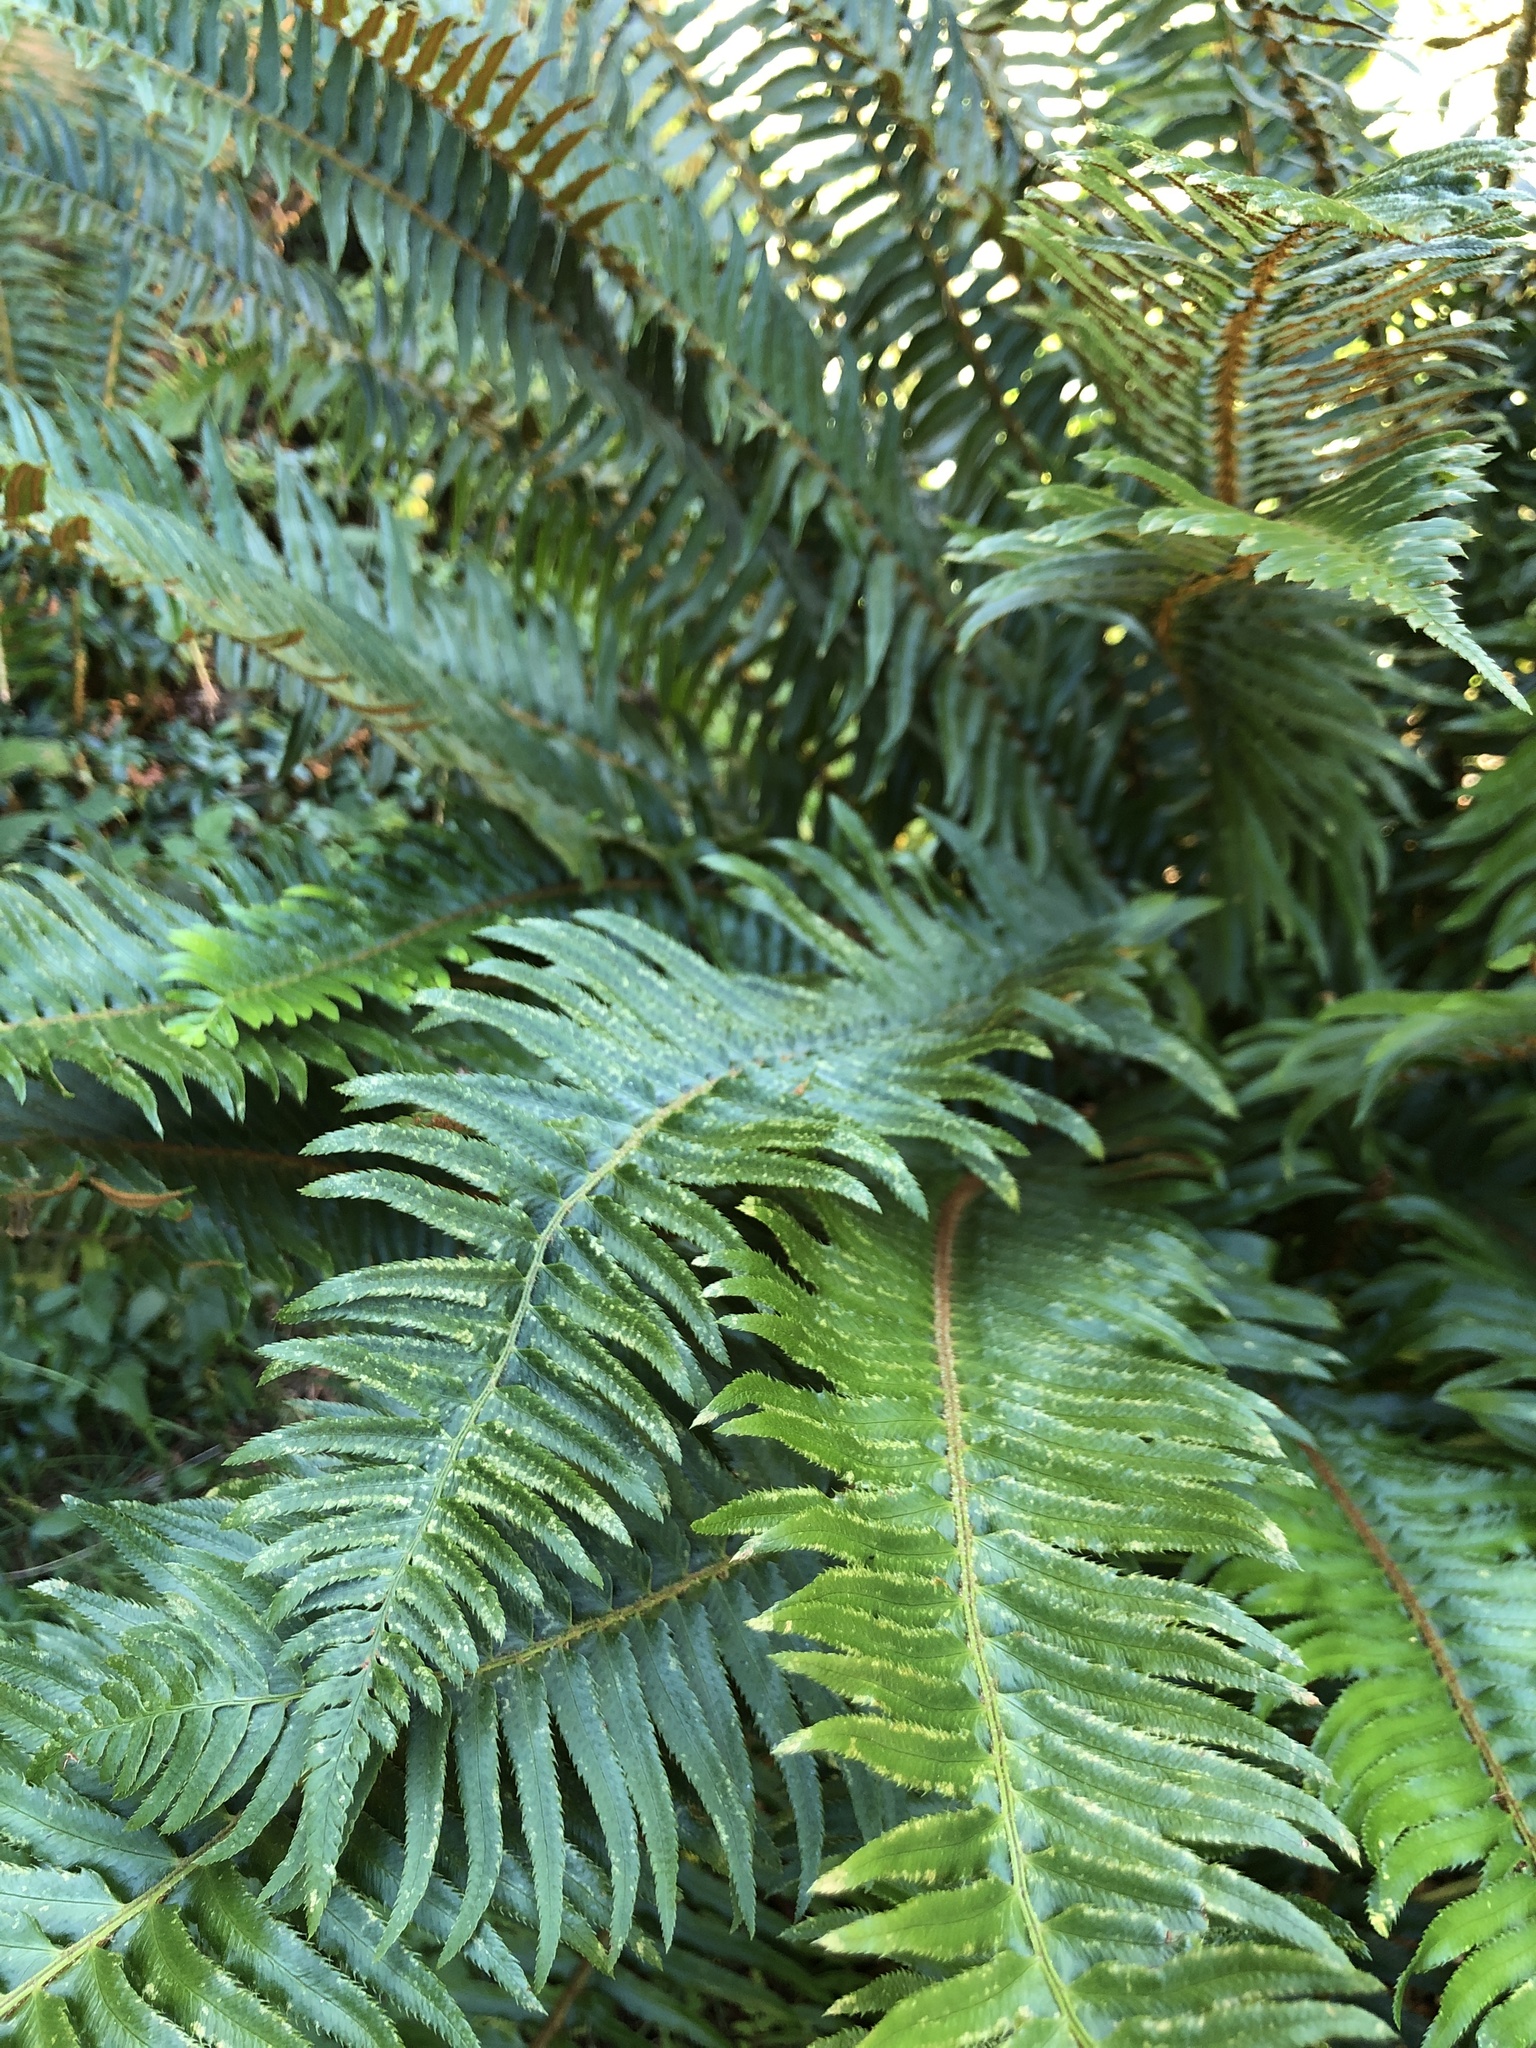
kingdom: Plantae
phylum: Tracheophyta
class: Polypodiopsida
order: Polypodiales
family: Dryopteridaceae
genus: Polystichum
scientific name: Polystichum munitum
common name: Western sword-fern
